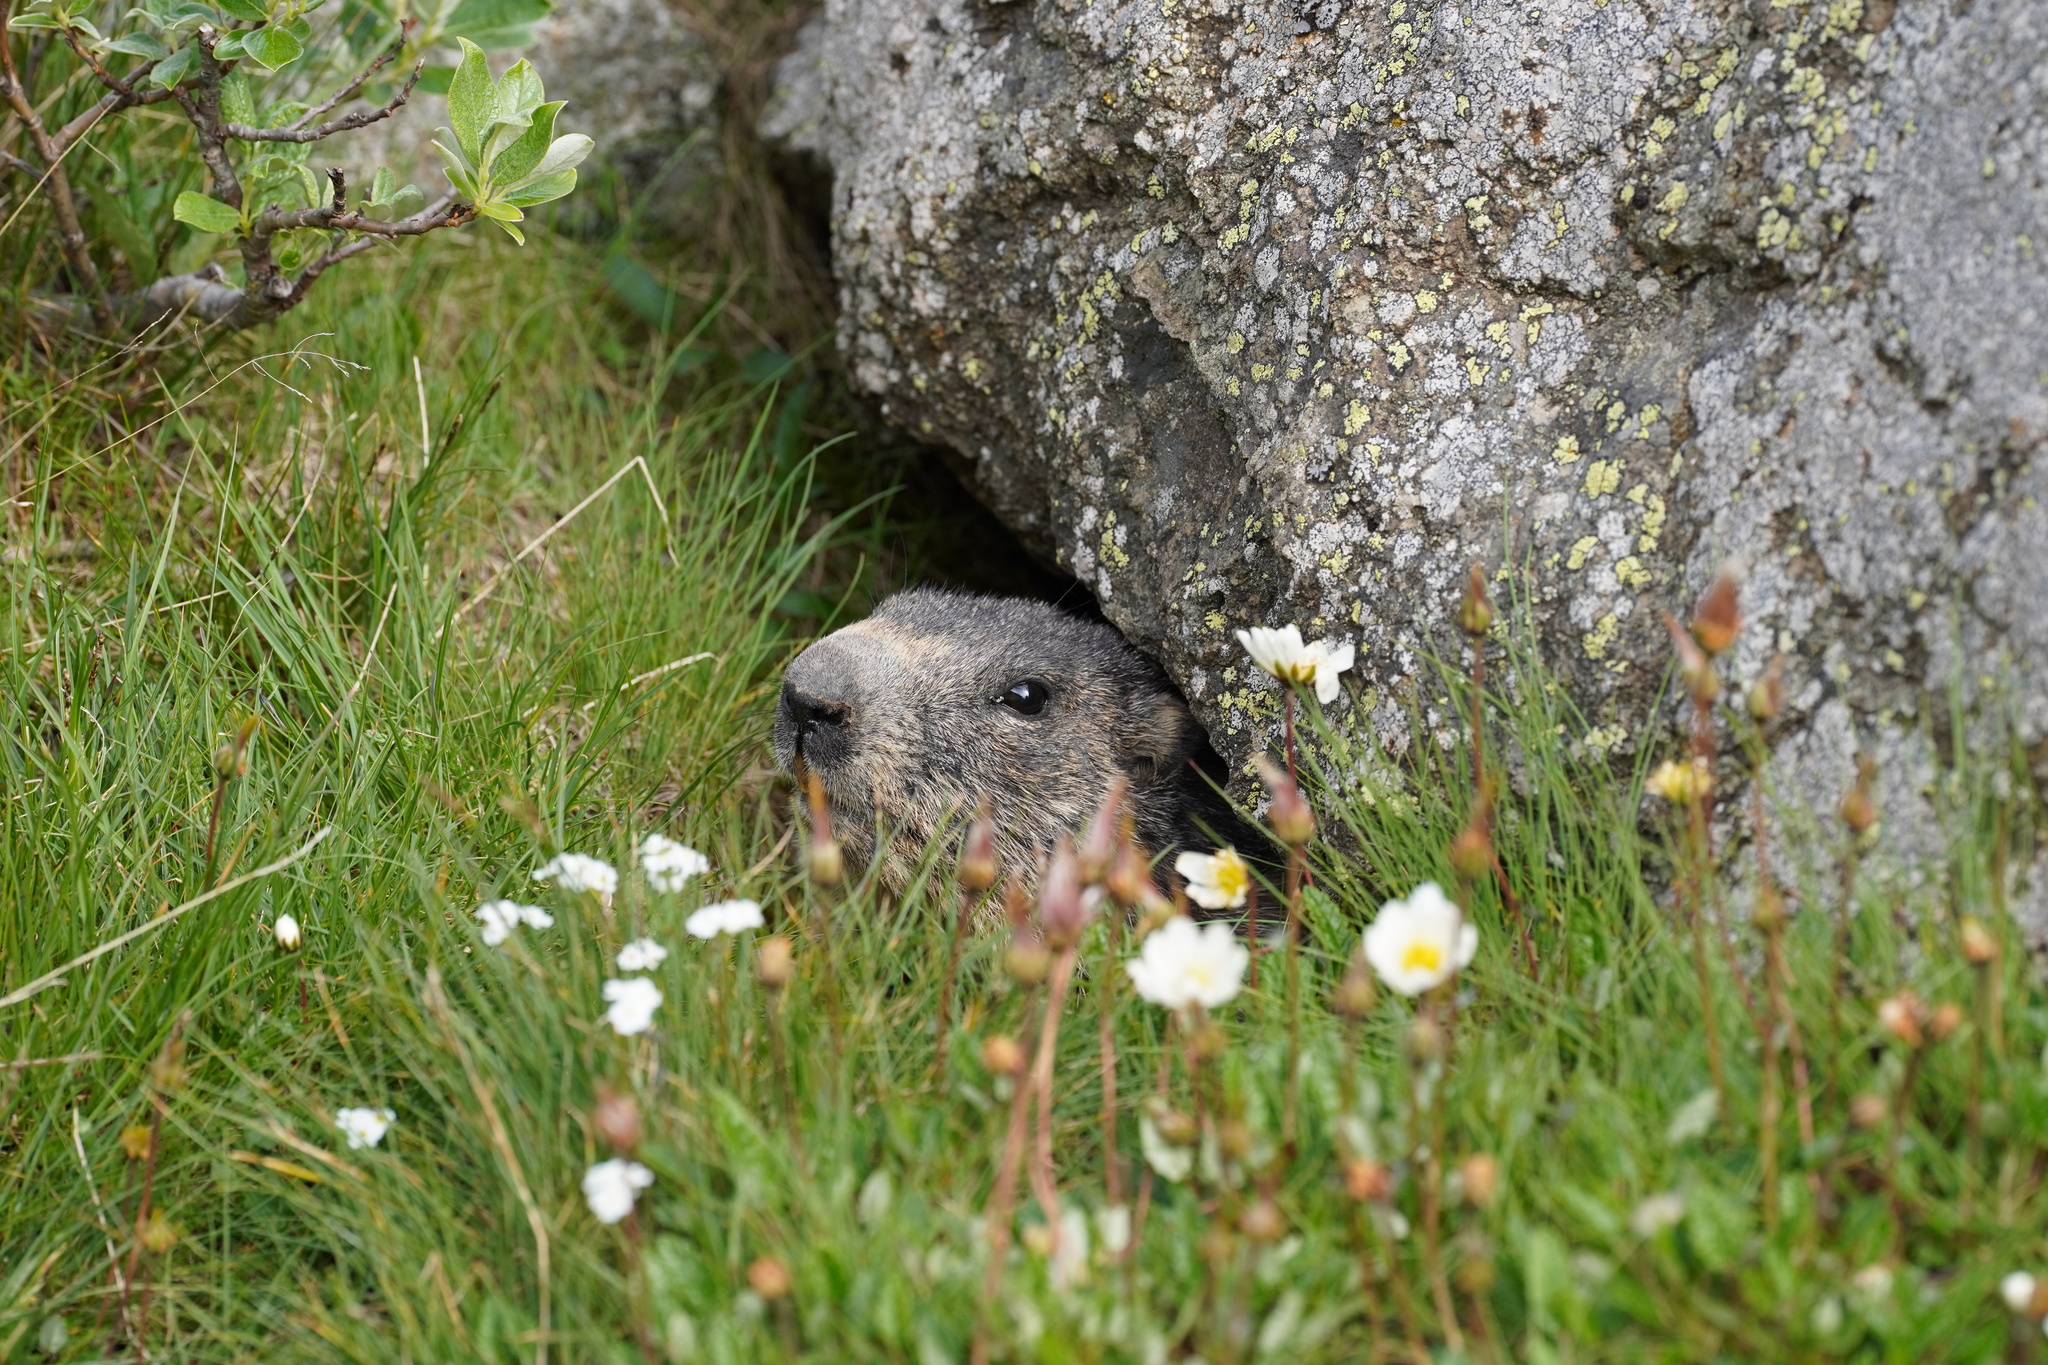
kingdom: Animalia
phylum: Chordata
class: Mammalia
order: Rodentia
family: Sciuridae
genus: Marmota
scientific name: Marmota marmota
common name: Alpine marmot
